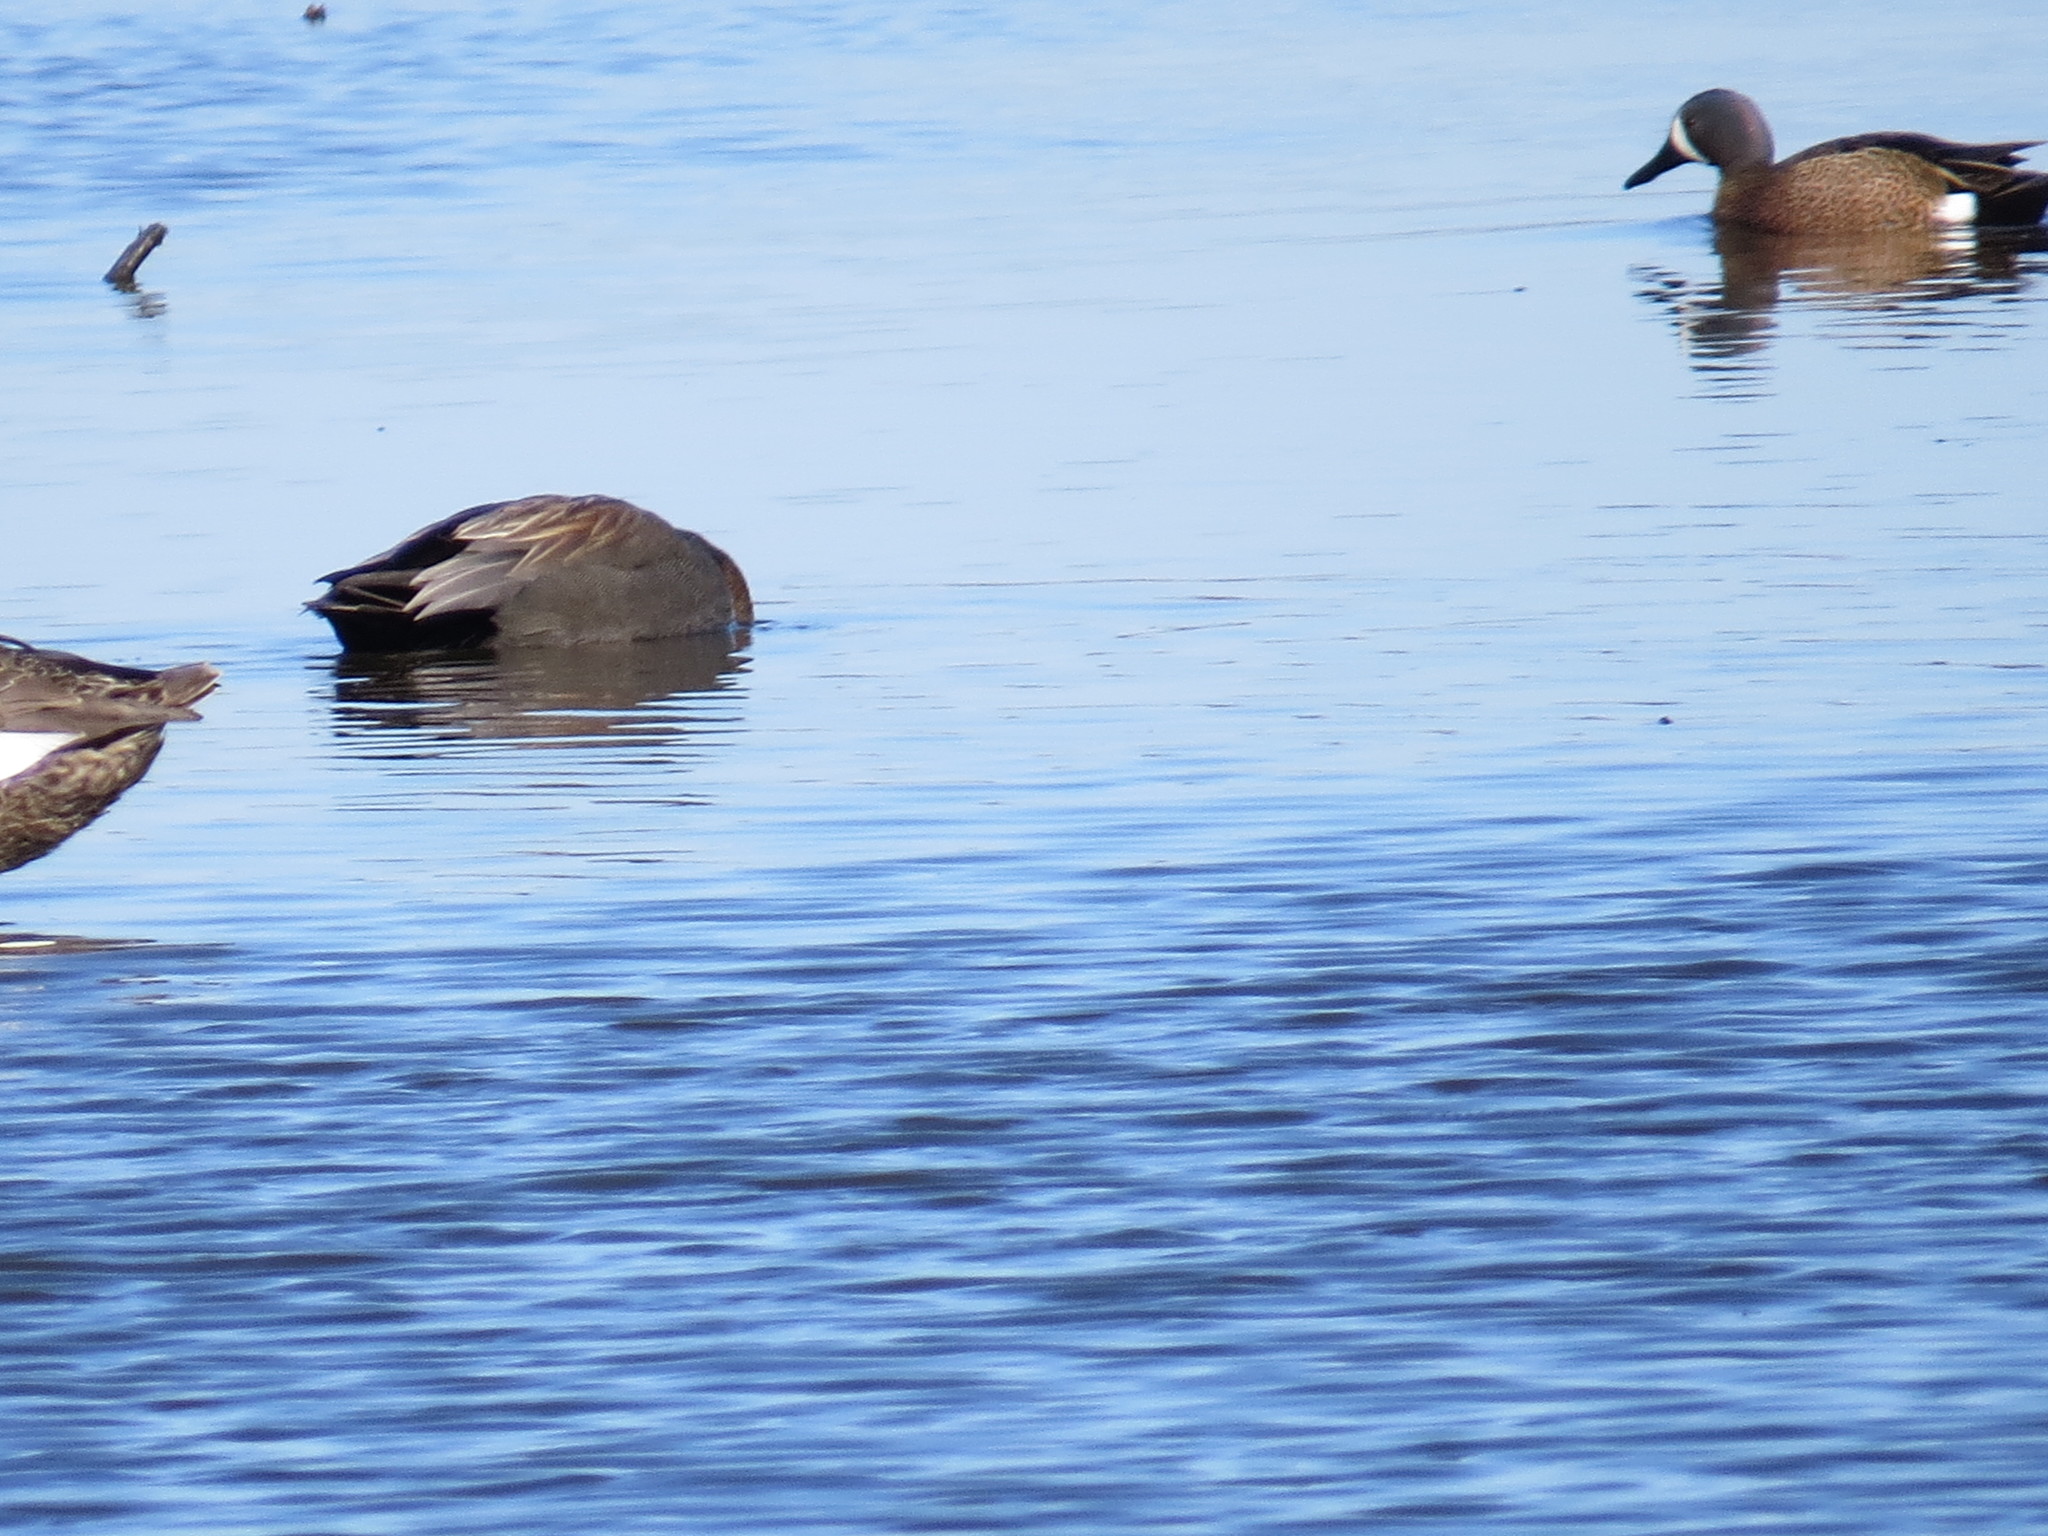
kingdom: Animalia
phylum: Chordata
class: Aves
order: Anseriformes
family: Anatidae
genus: Spatula
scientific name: Spatula discors
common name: Blue-winged teal
